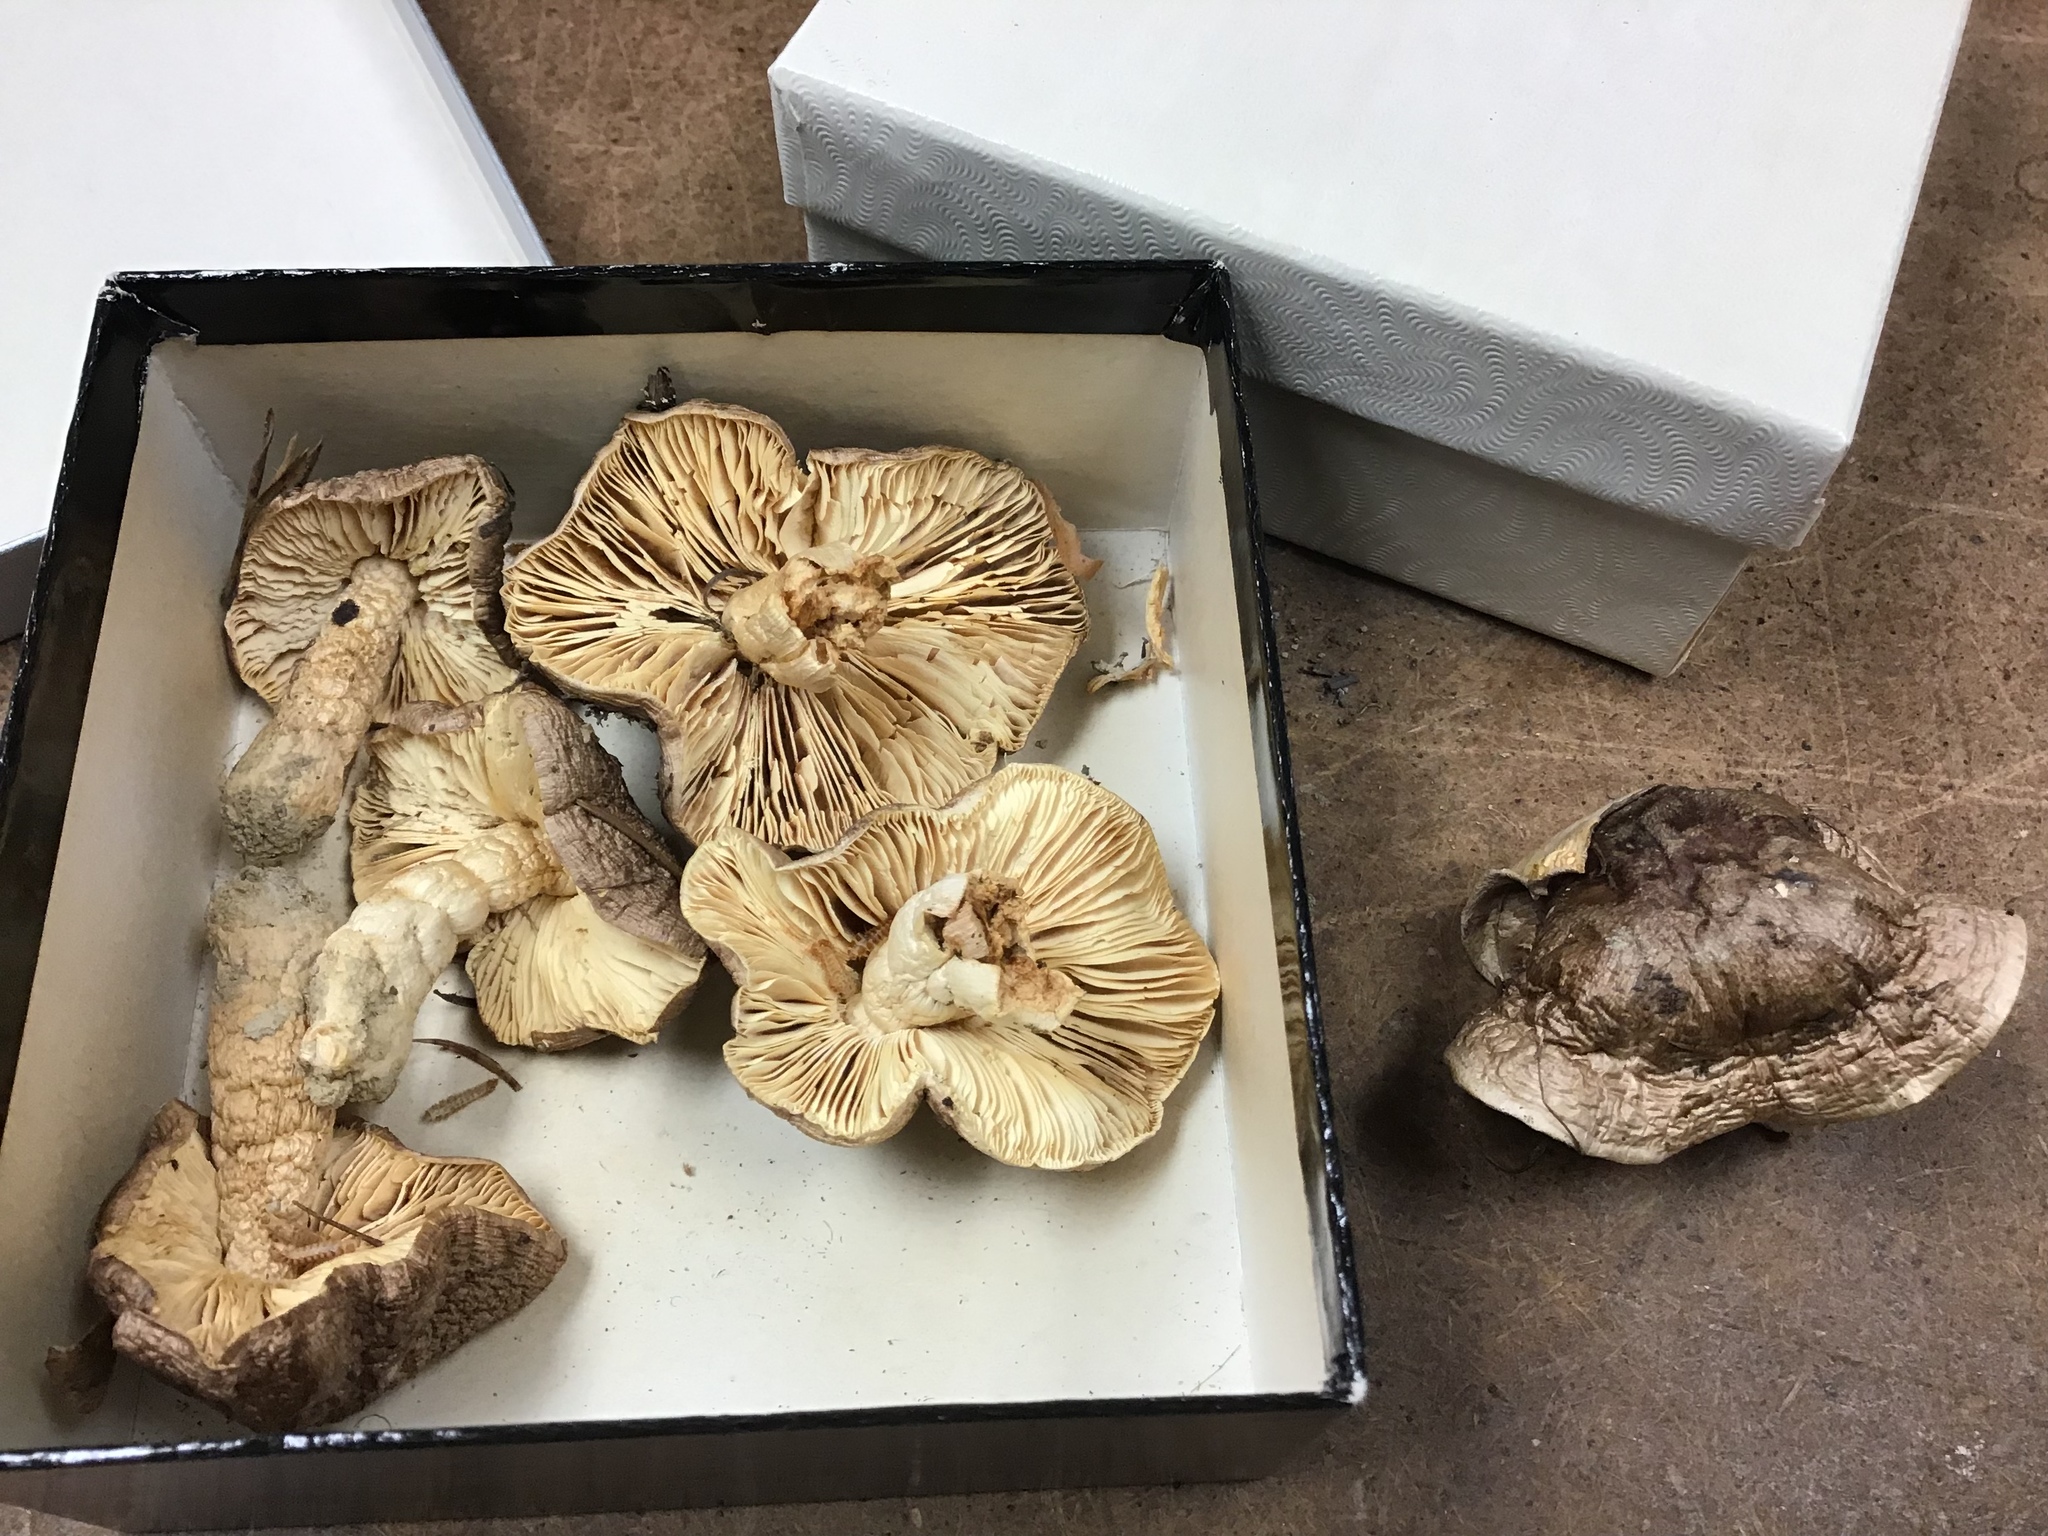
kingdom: Fungi
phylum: Basidiomycota
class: Agaricomycetes
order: Agaricales
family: Tricholomataceae
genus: Tricholoma
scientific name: Tricholoma portentosum
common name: Coalman
